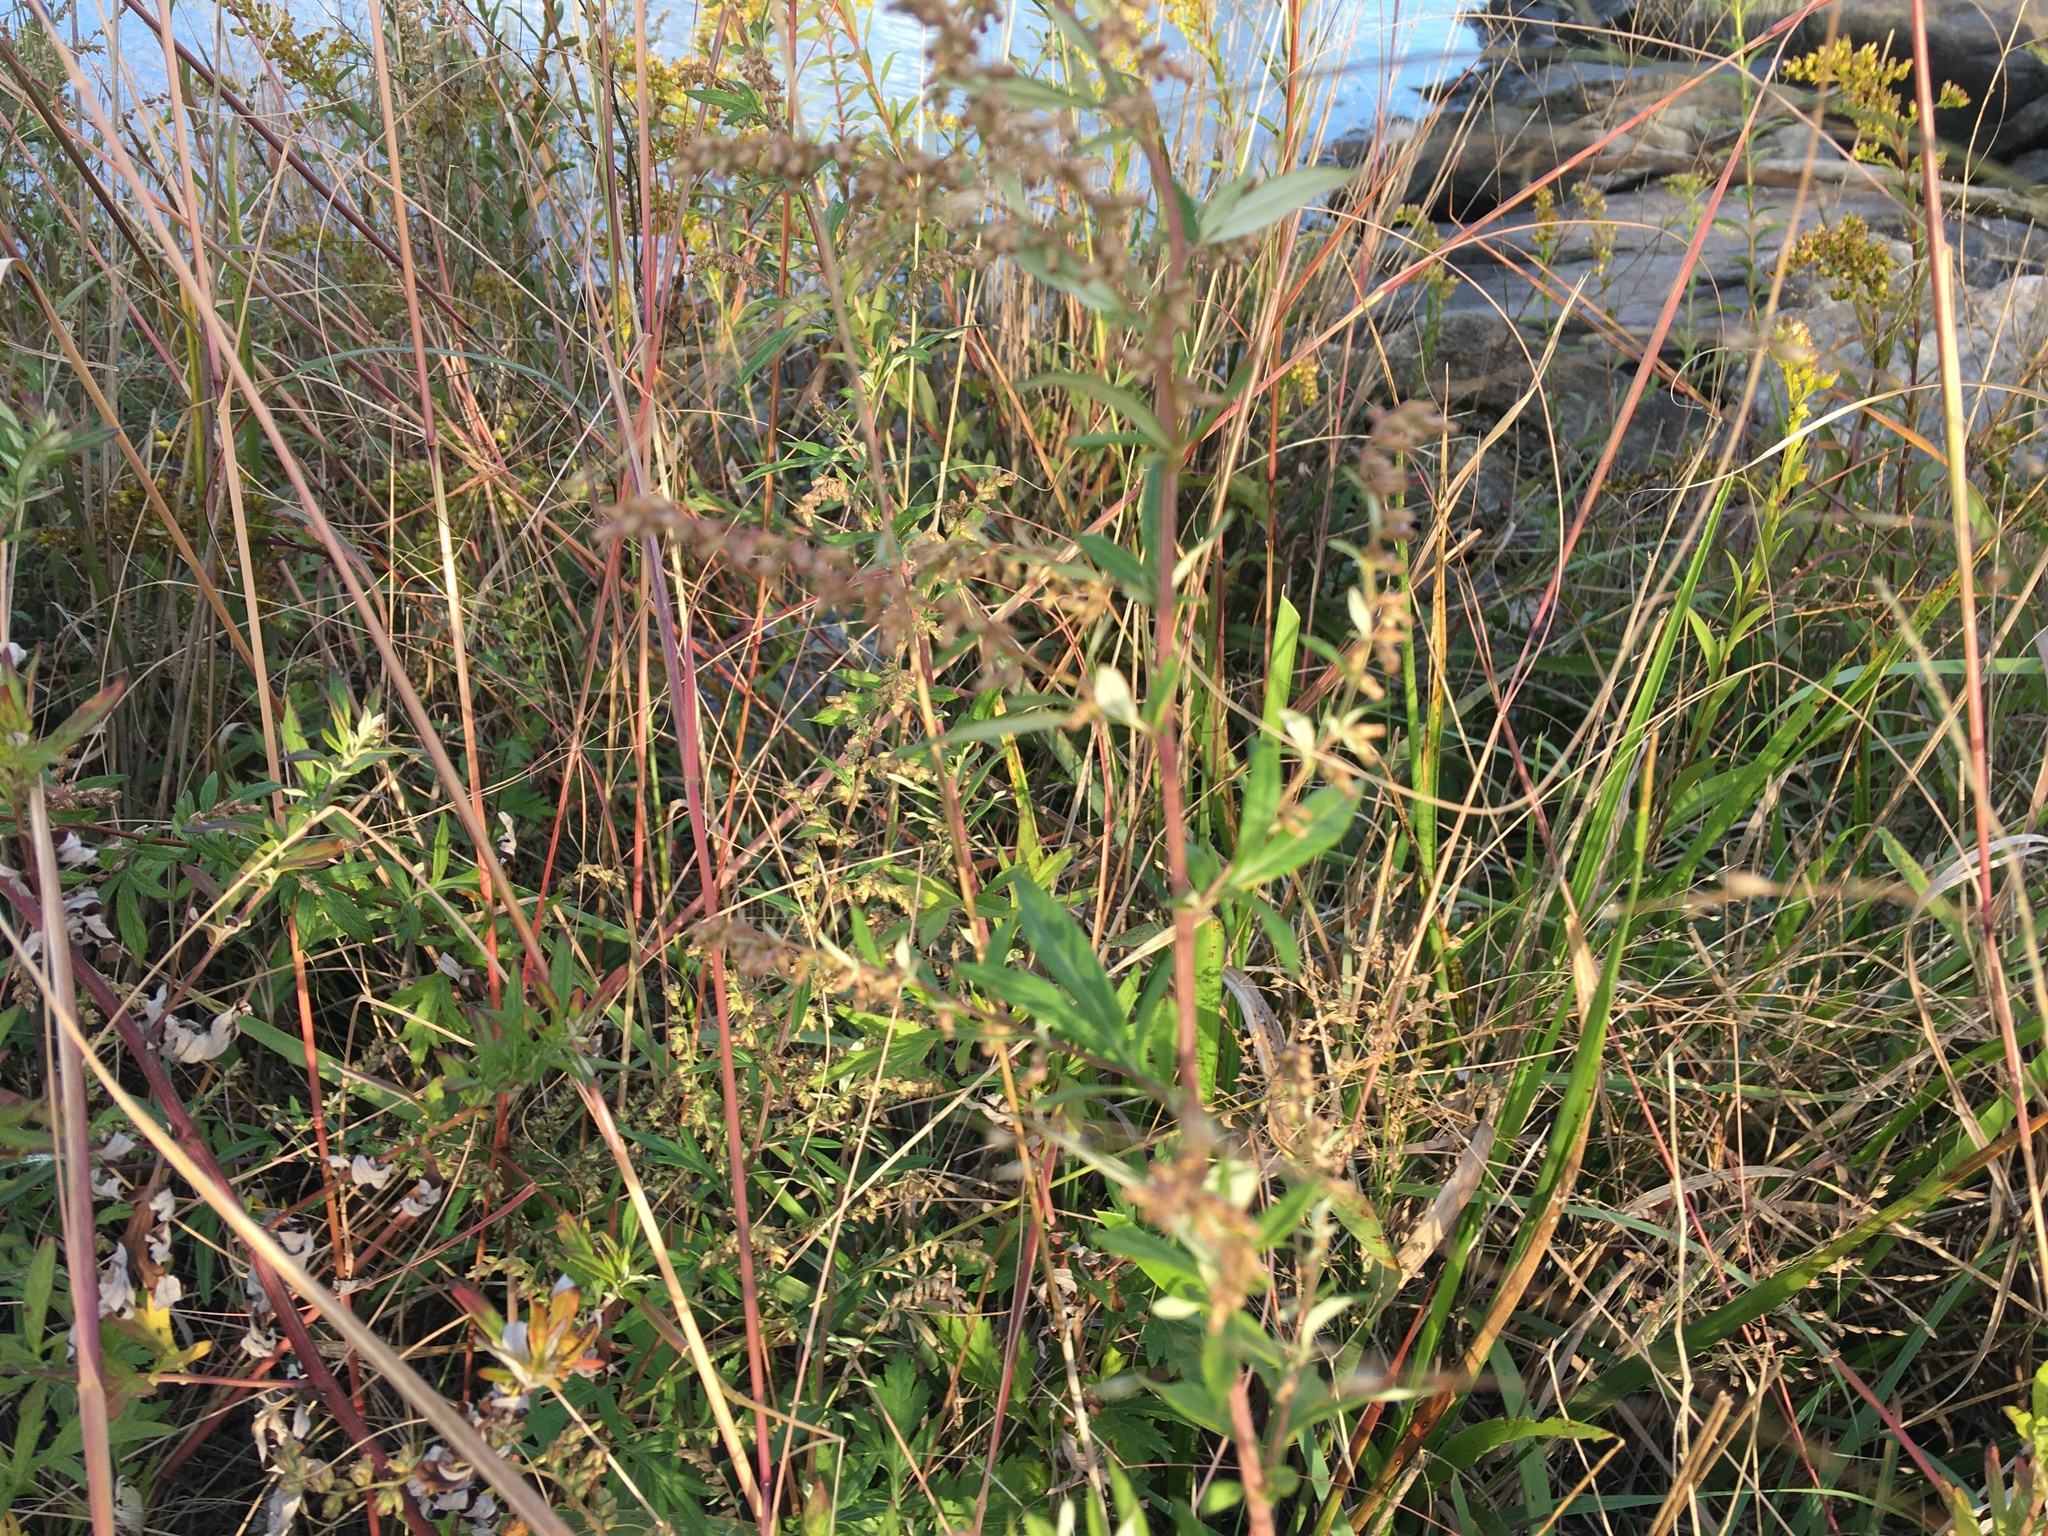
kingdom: Plantae
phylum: Tracheophyta
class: Magnoliopsida
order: Asterales
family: Asteraceae
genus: Artemisia
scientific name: Artemisia vulgaris
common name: Mugwort
